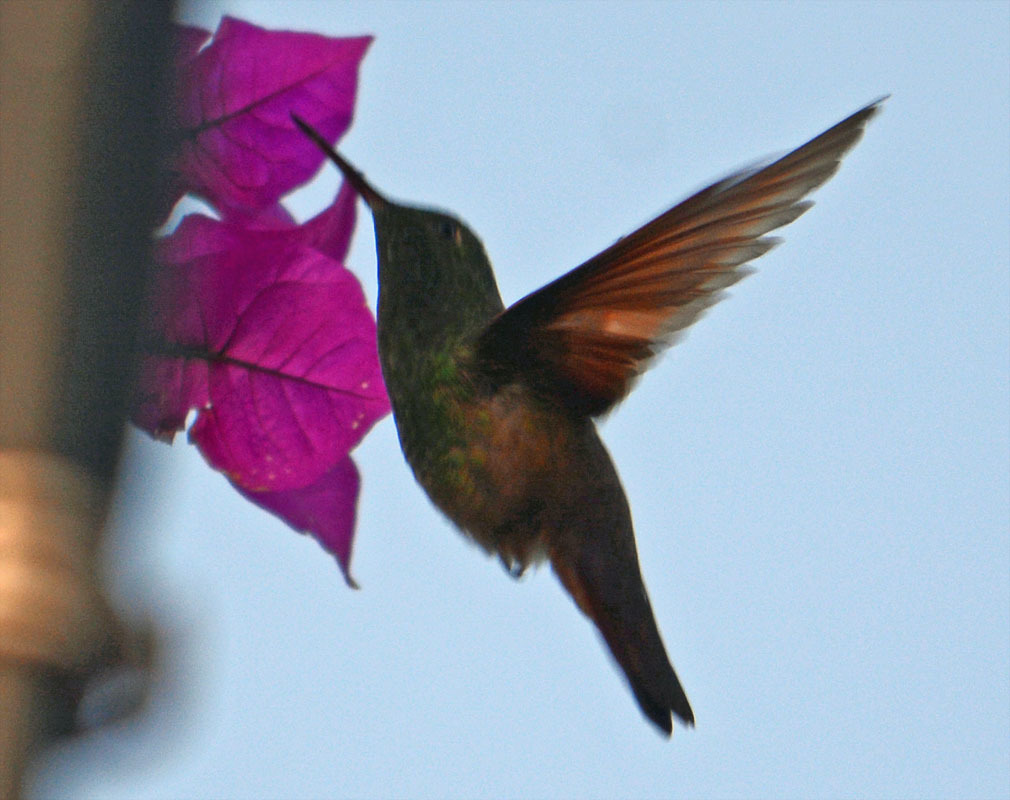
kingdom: Animalia
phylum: Chordata
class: Aves
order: Apodiformes
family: Trochilidae
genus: Saucerottia
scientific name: Saucerottia beryllina
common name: Berylline hummingbird
